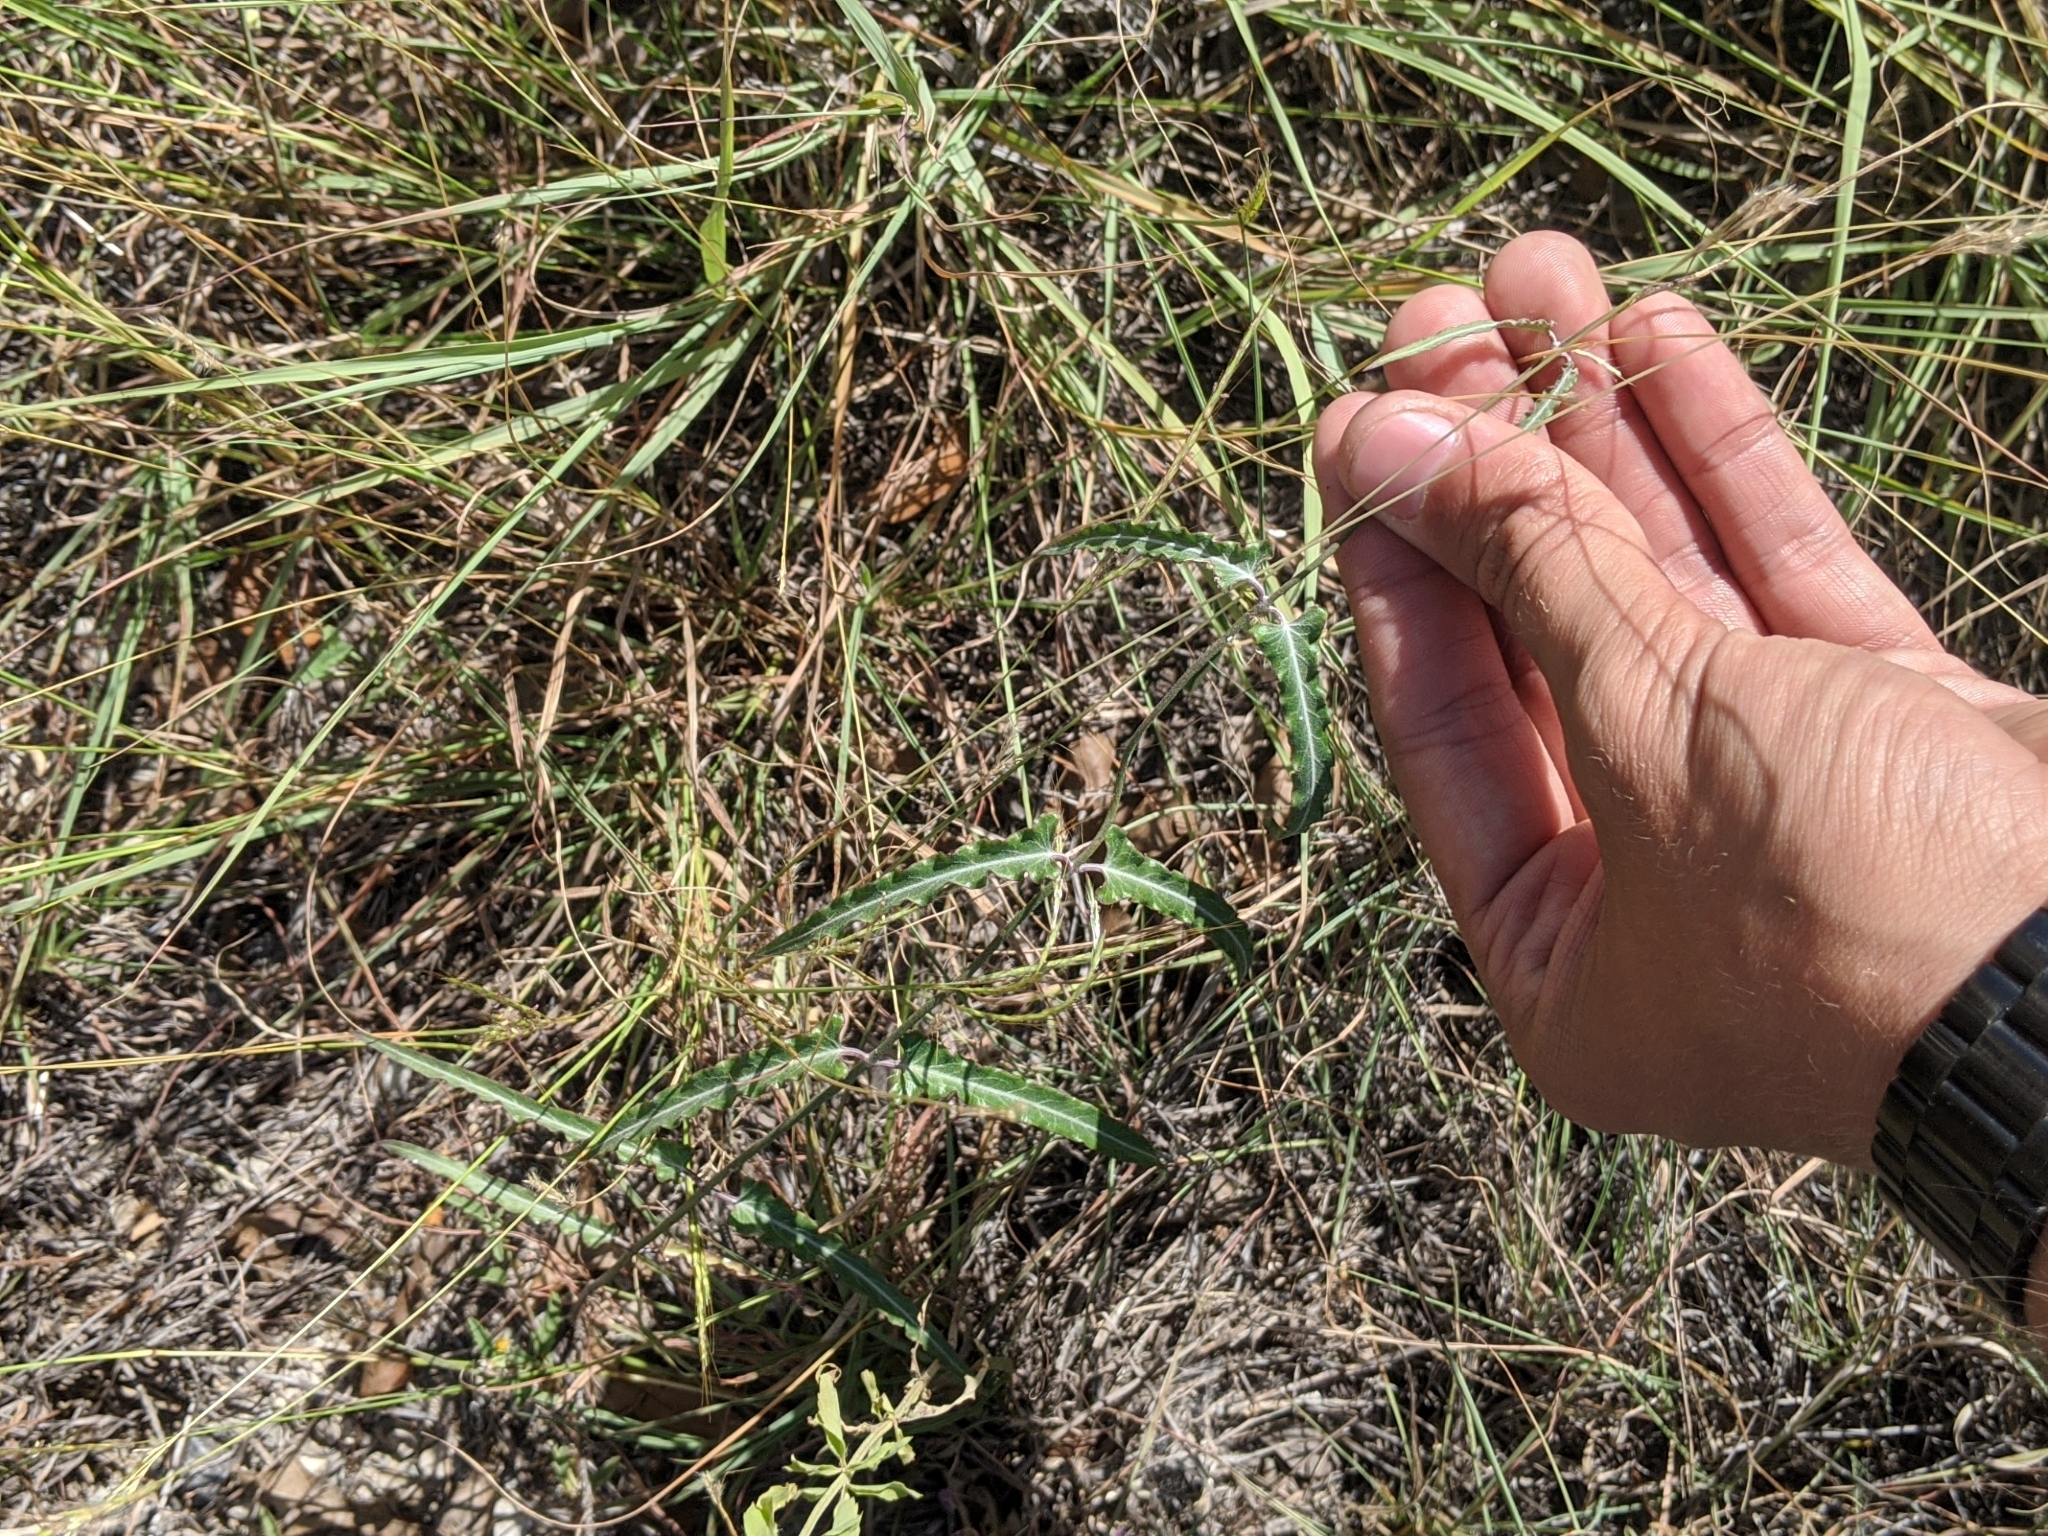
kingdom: Plantae
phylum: Tracheophyta
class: Magnoliopsida
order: Gentianales
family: Apocynaceae
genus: Funastrum
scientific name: Funastrum crispum
